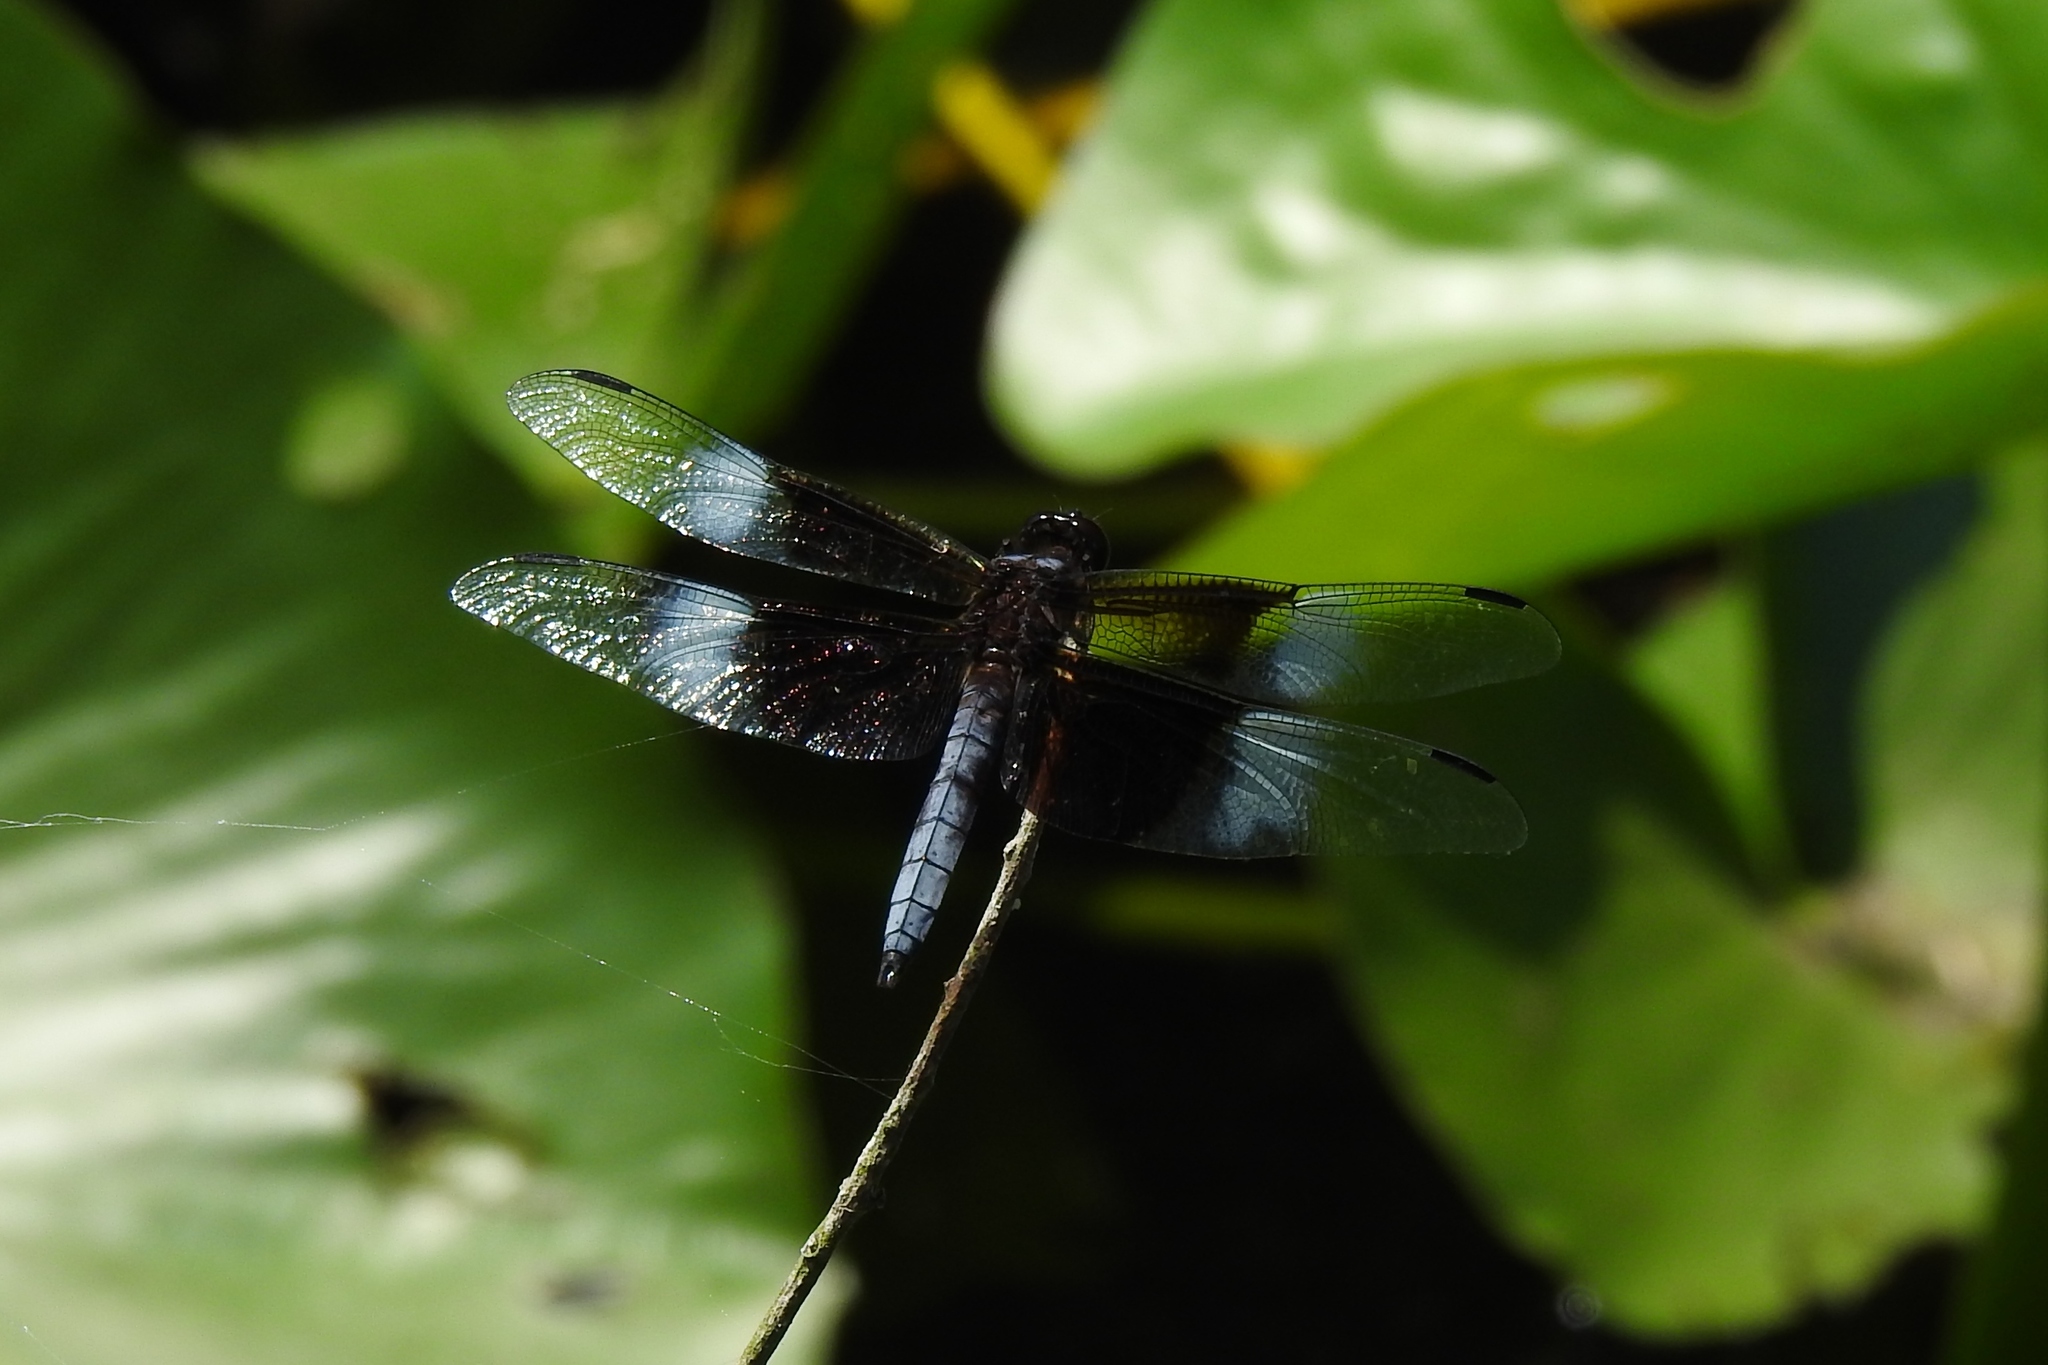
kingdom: Animalia
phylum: Arthropoda
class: Insecta
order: Odonata
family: Libellulidae
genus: Libellula
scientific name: Libellula luctuosa
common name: Widow skimmer
